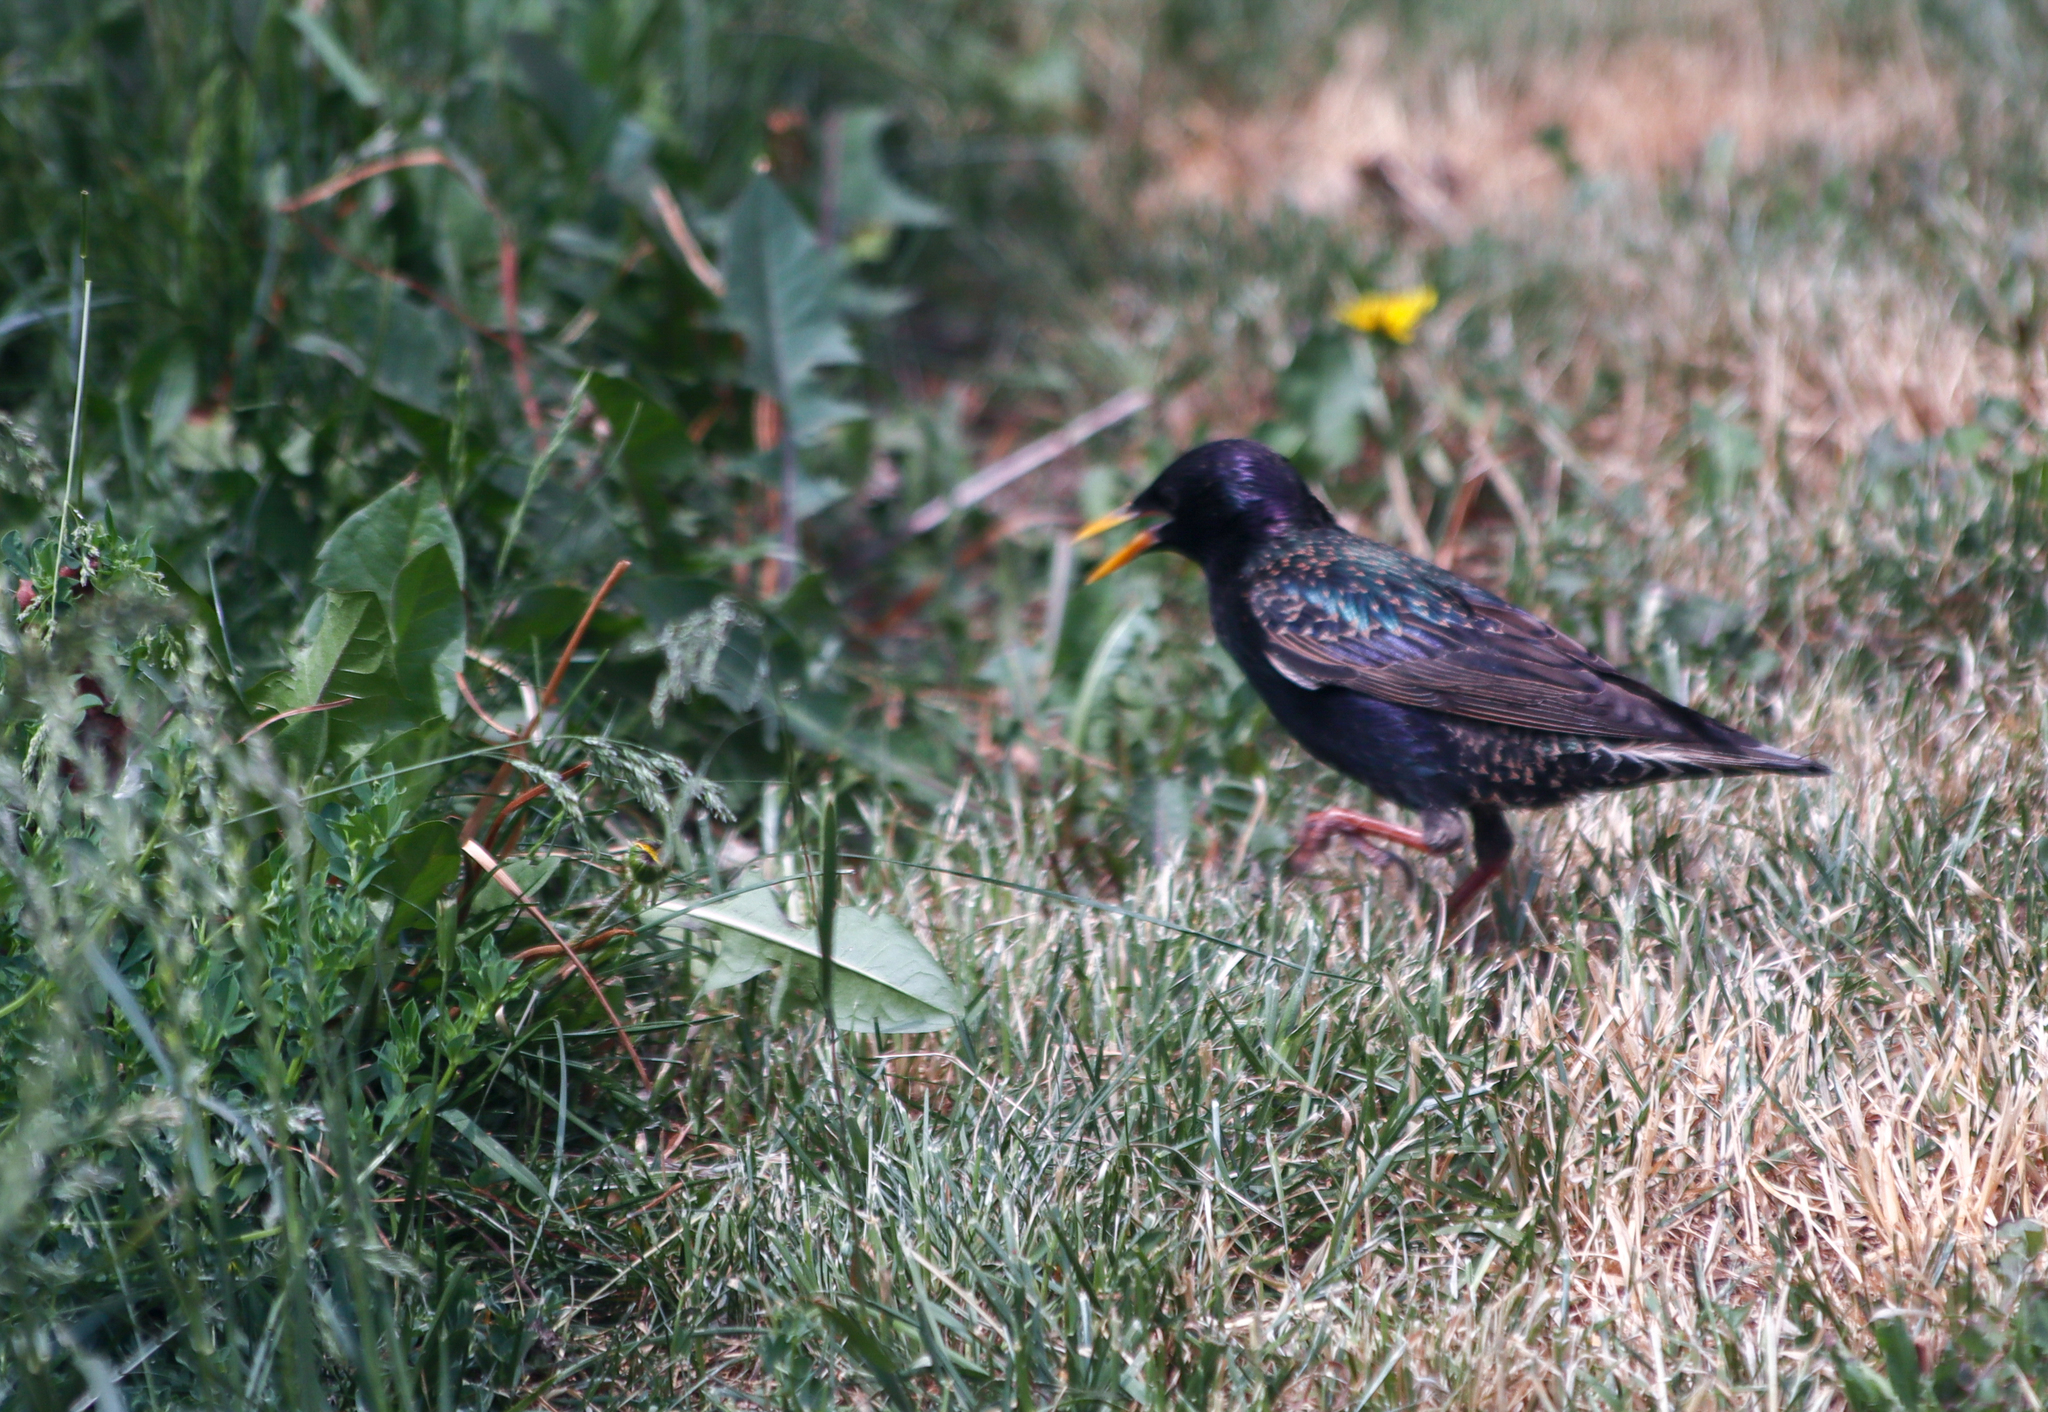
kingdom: Animalia
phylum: Chordata
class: Aves
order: Passeriformes
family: Sturnidae
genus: Sturnus
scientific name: Sturnus vulgaris
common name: Common starling
